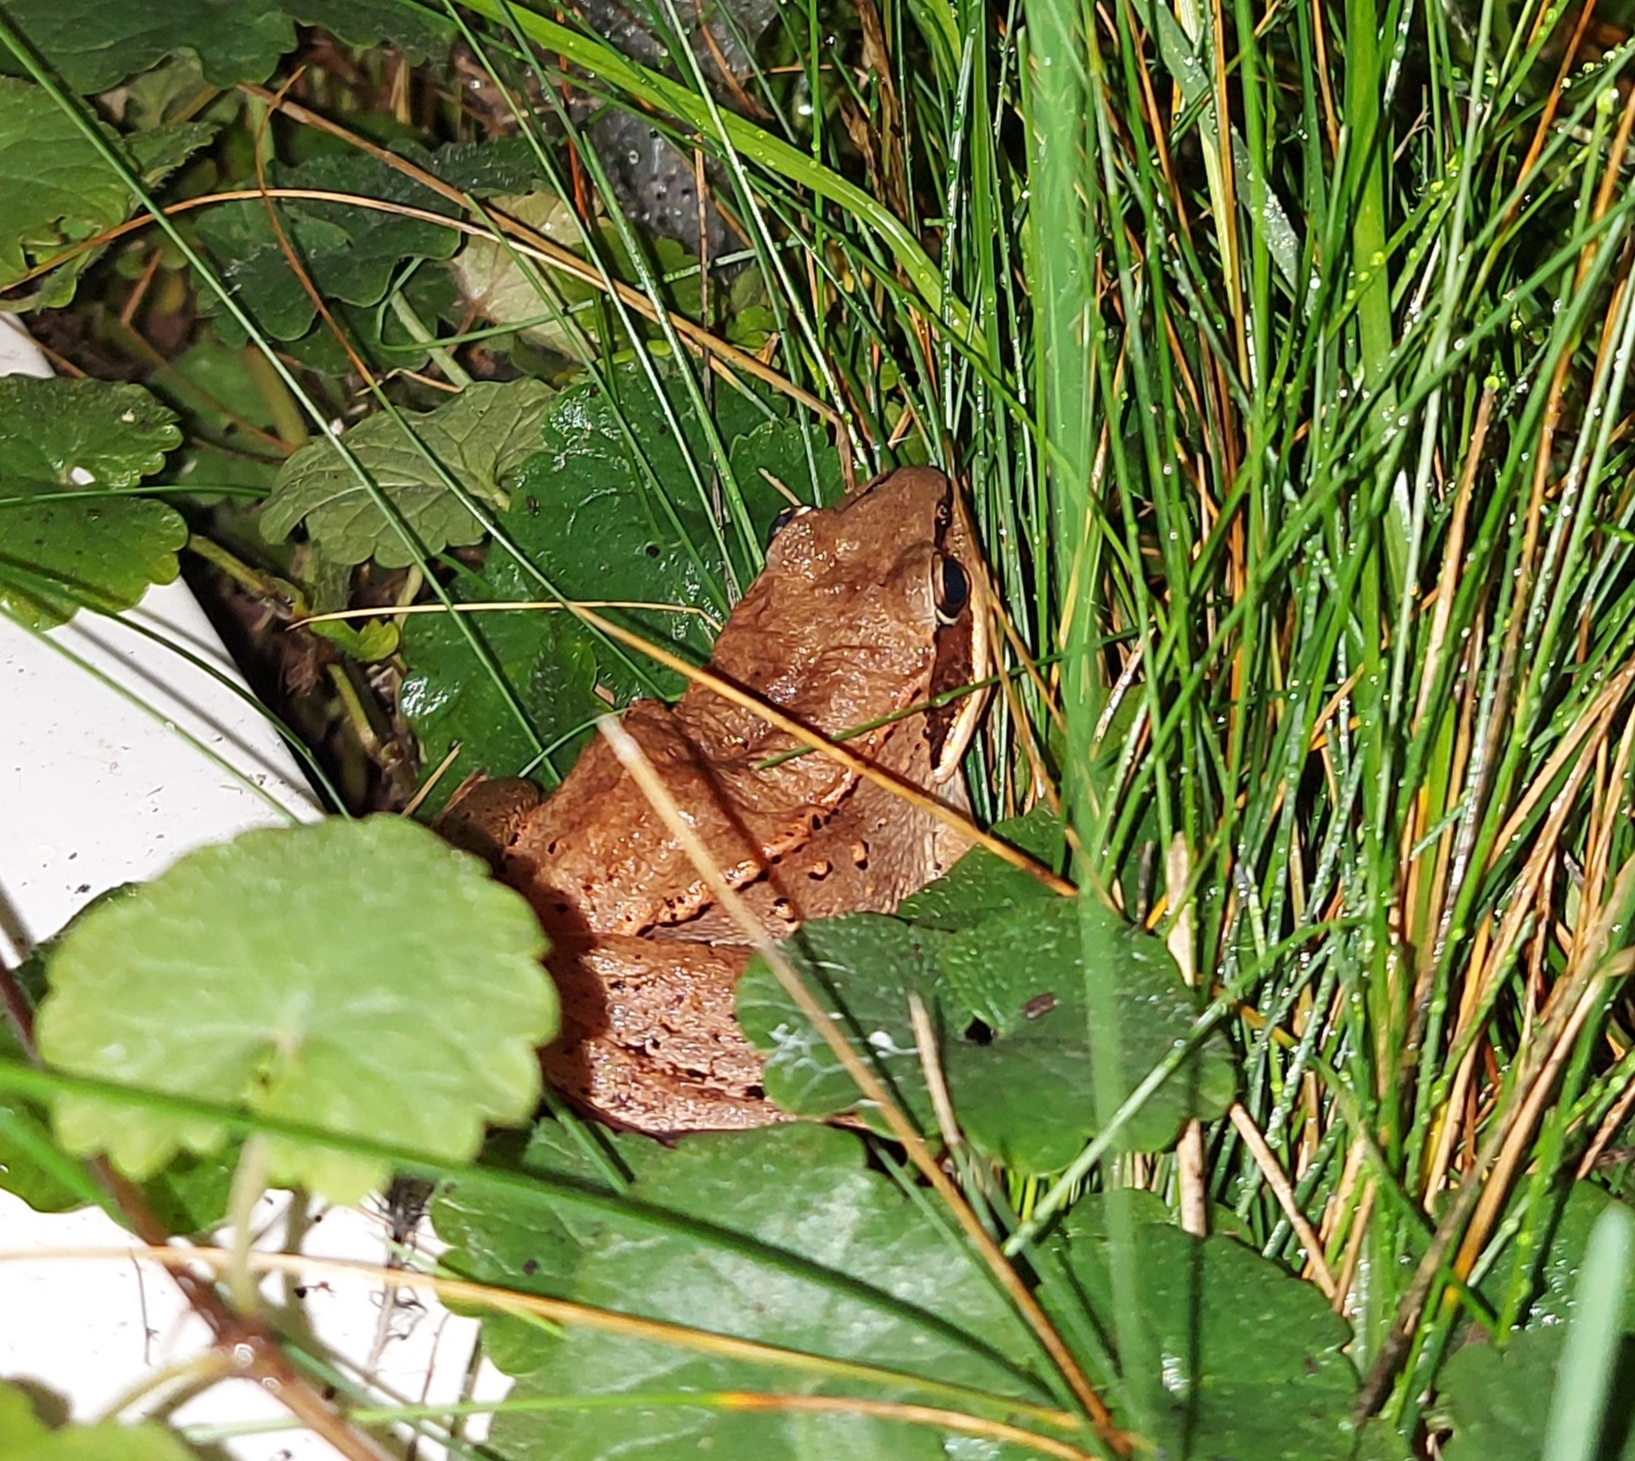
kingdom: Animalia
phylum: Chordata
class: Amphibia
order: Anura
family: Ranidae
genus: Lithobates
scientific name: Lithobates sylvaticus
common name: Wood frog
